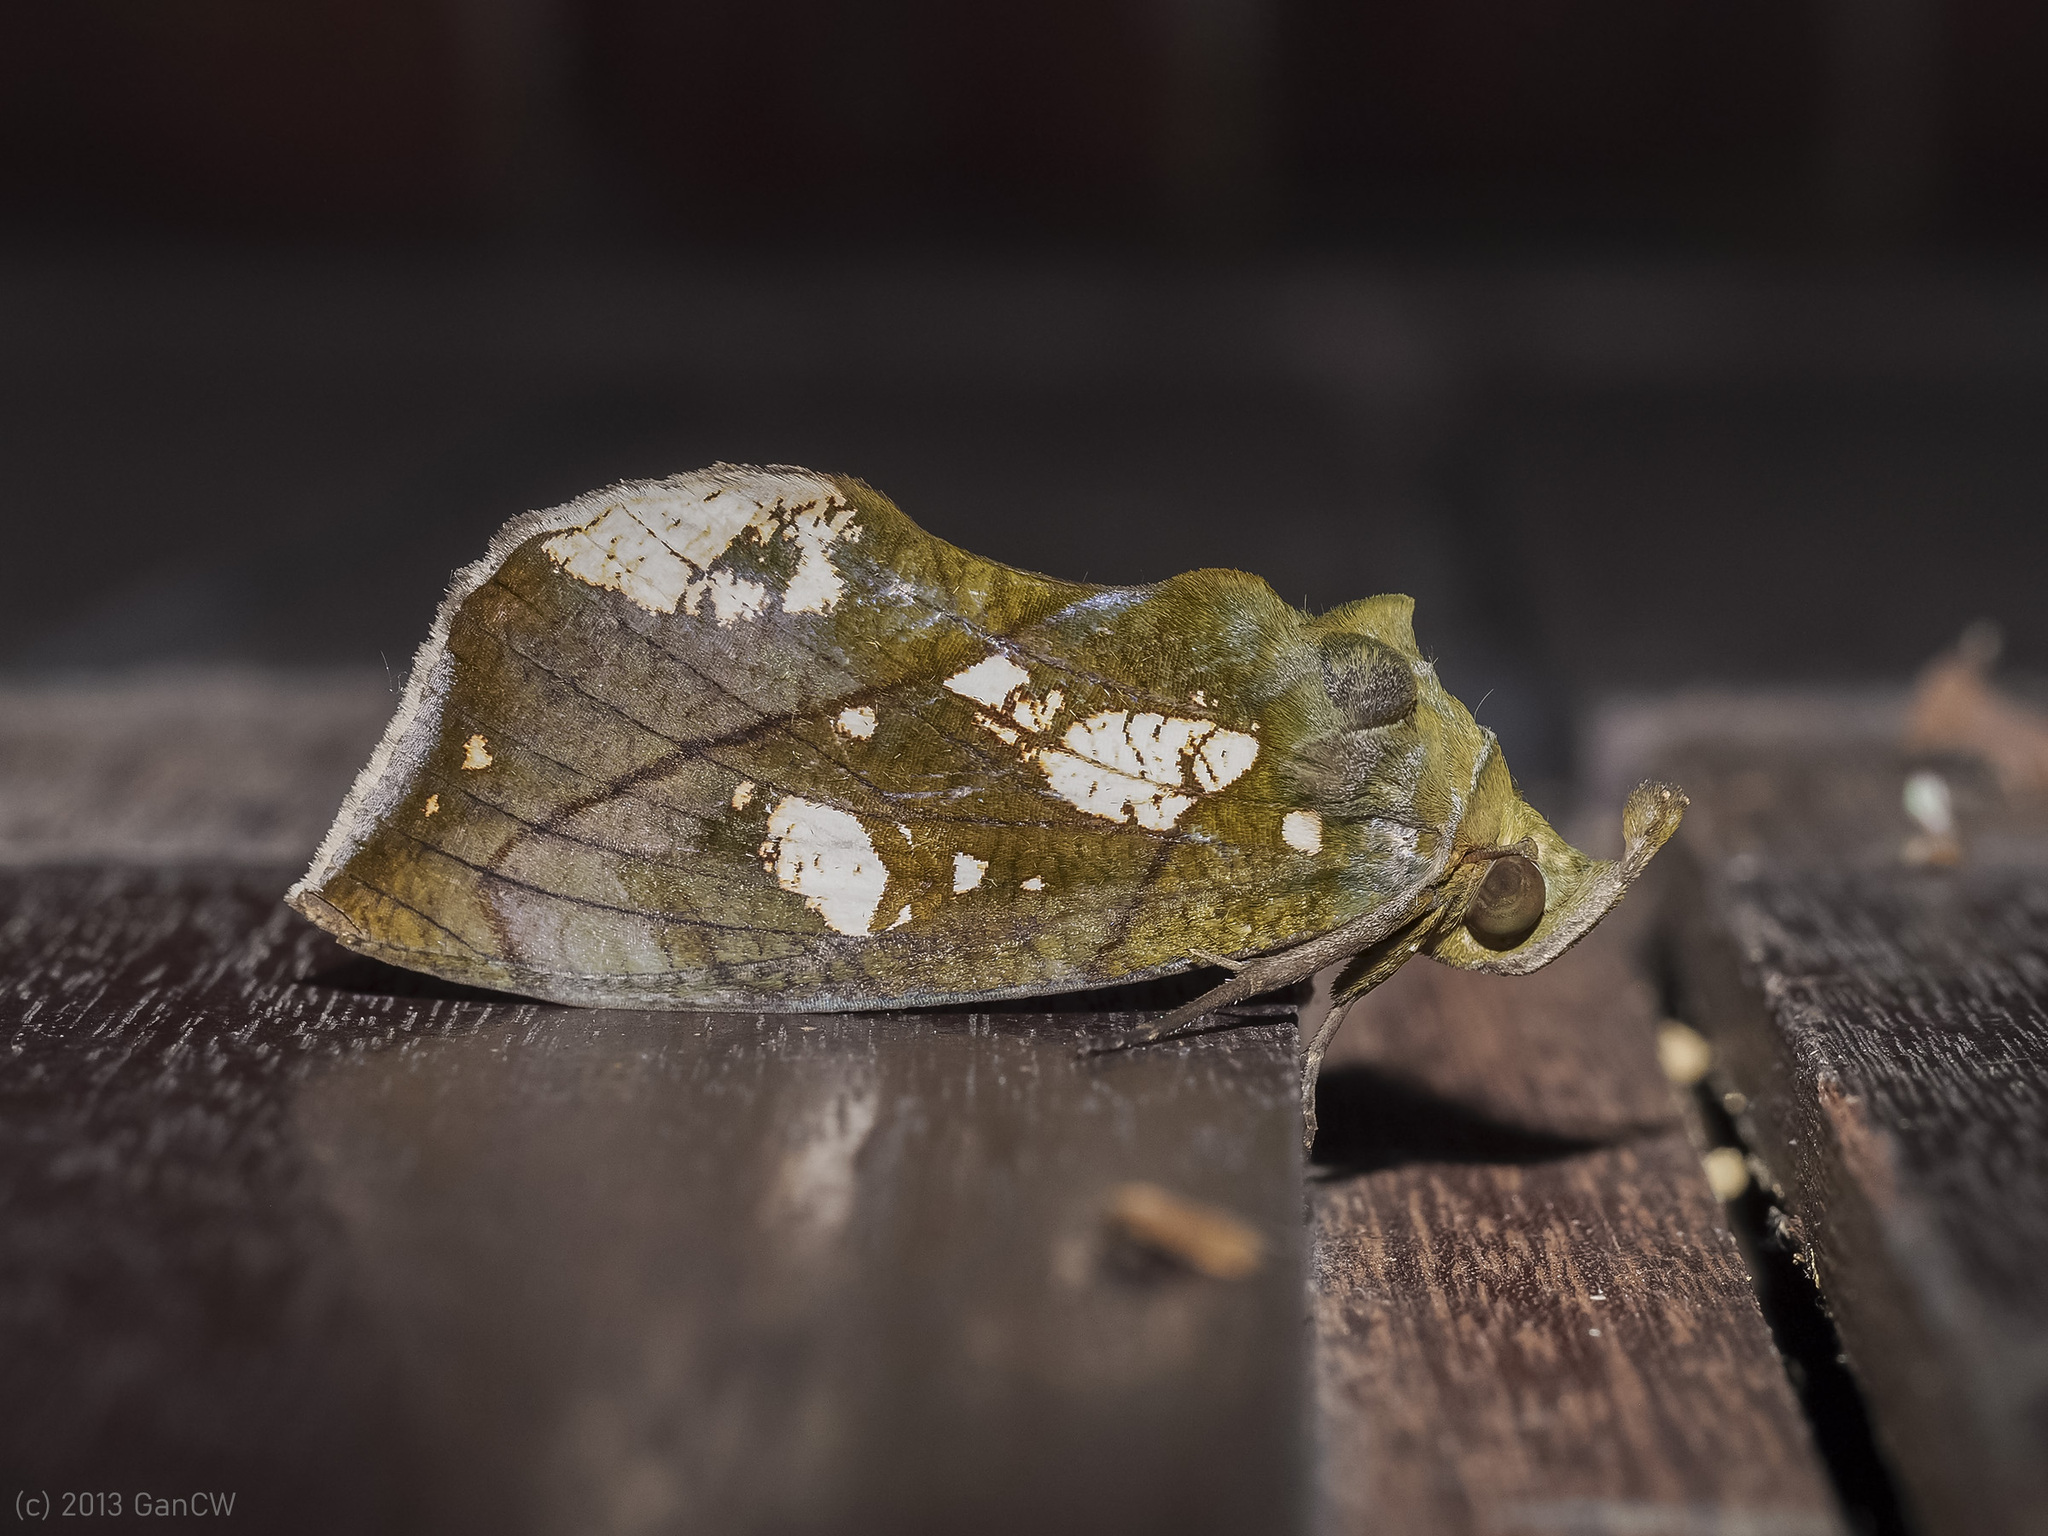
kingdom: Animalia
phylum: Arthropoda
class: Insecta
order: Lepidoptera
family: Erebidae
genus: Eudocima
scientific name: Eudocima cocalus
